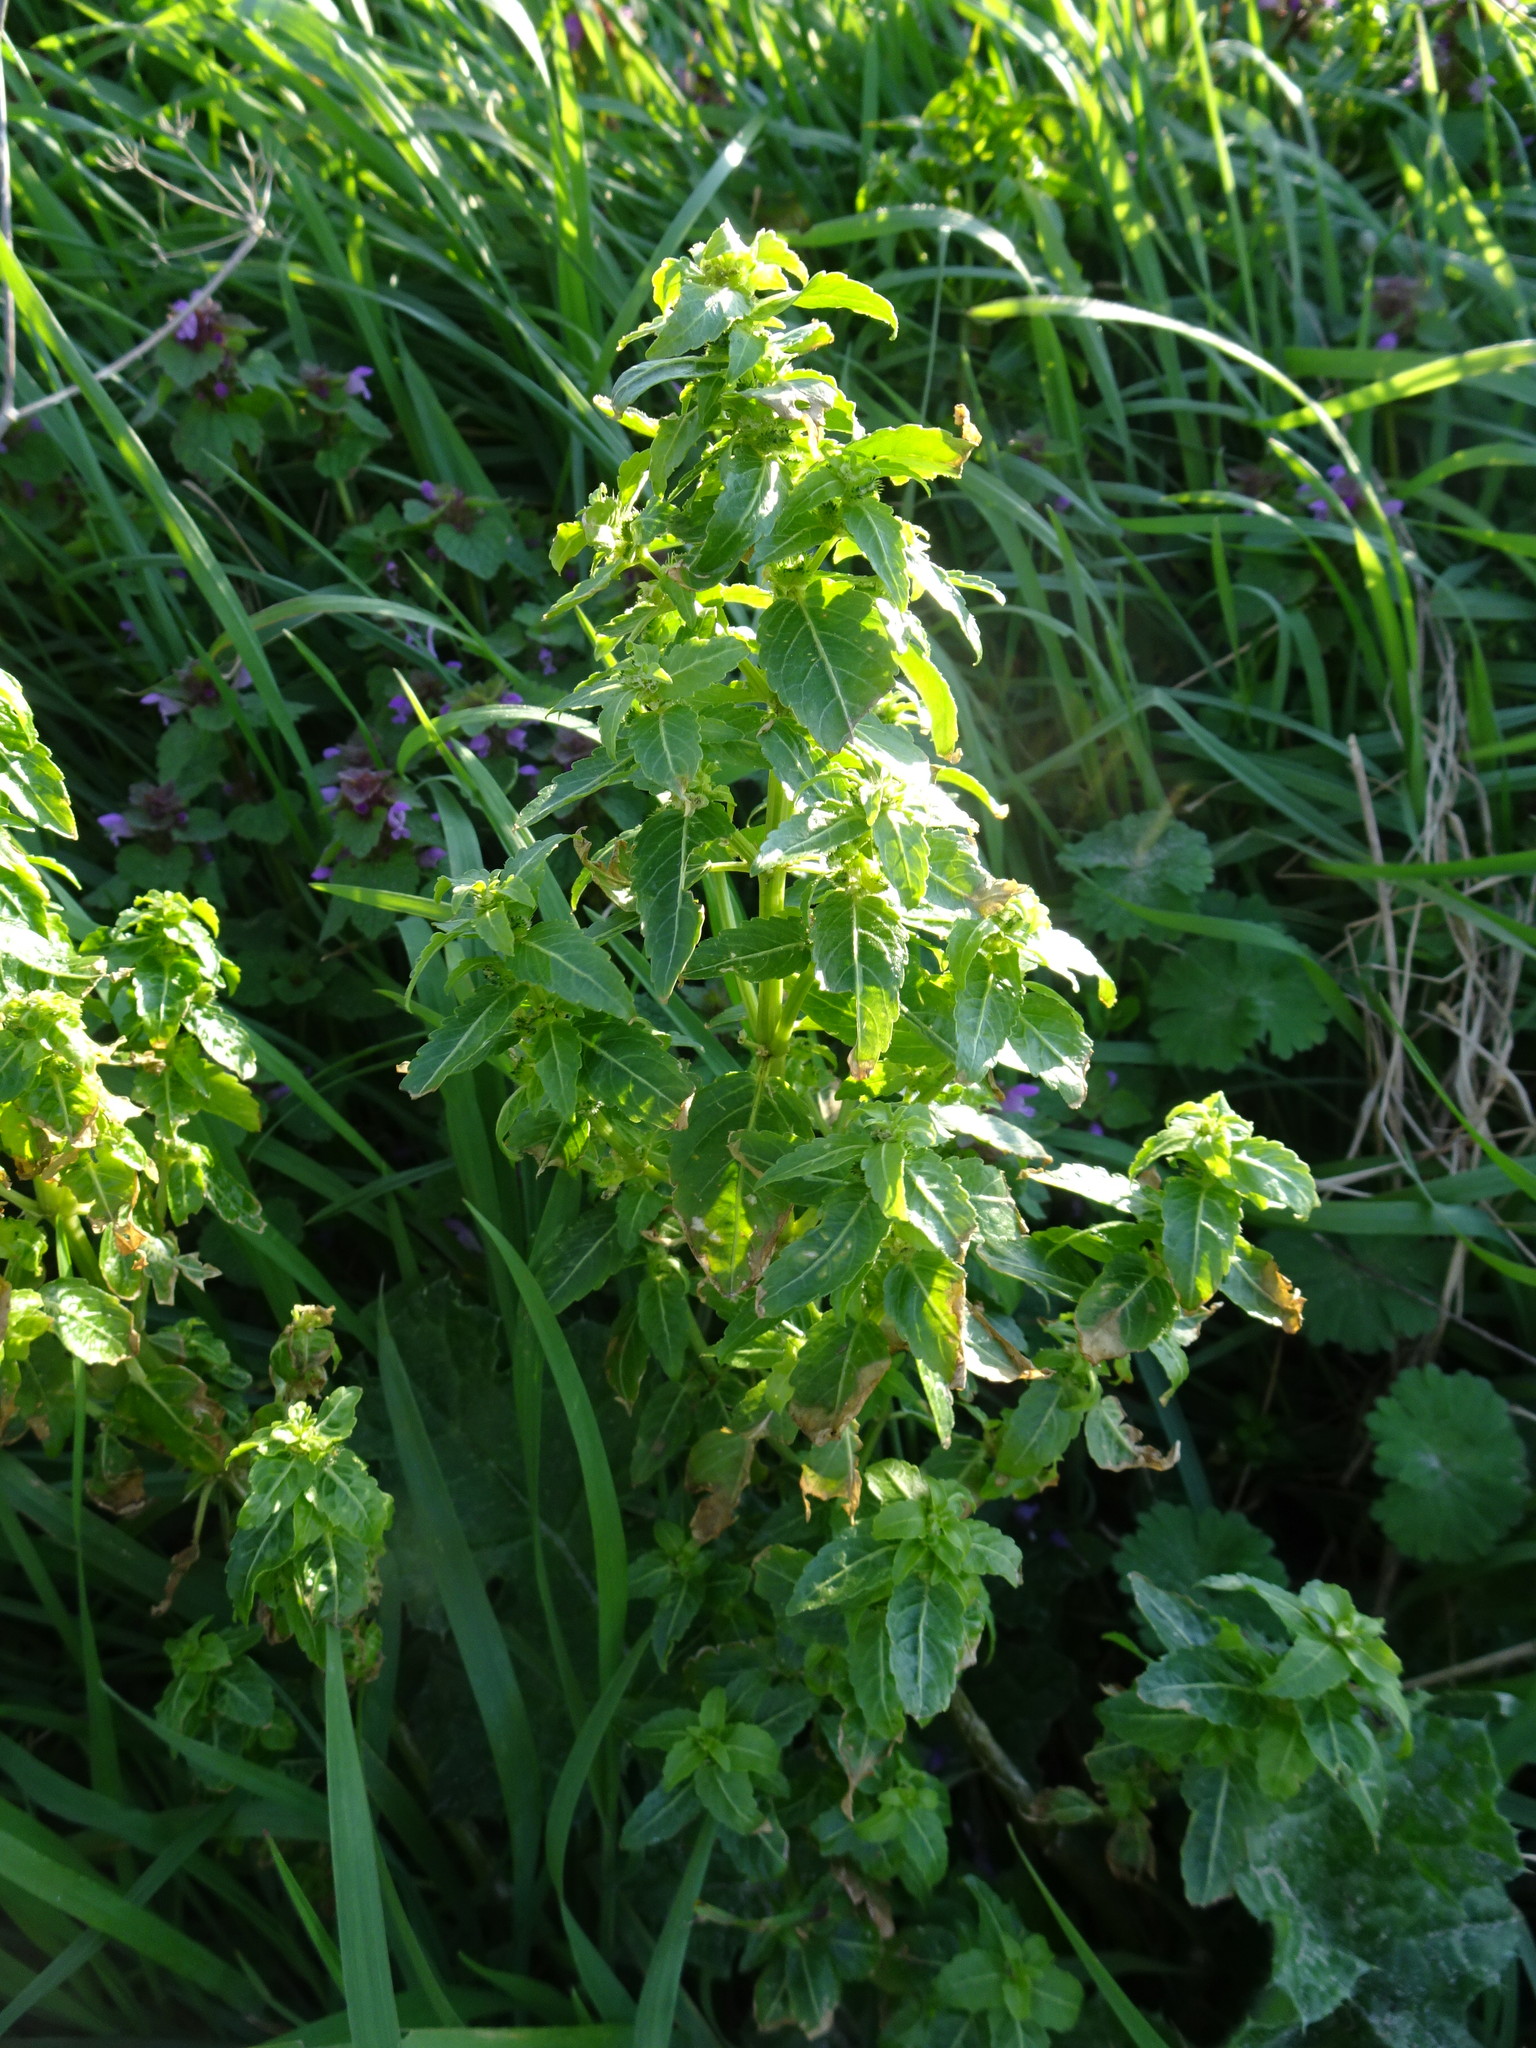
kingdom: Plantae
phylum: Tracheophyta
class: Magnoliopsida
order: Malpighiales
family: Euphorbiaceae
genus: Mercurialis
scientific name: Mercurialis annua
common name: Annual mercury
